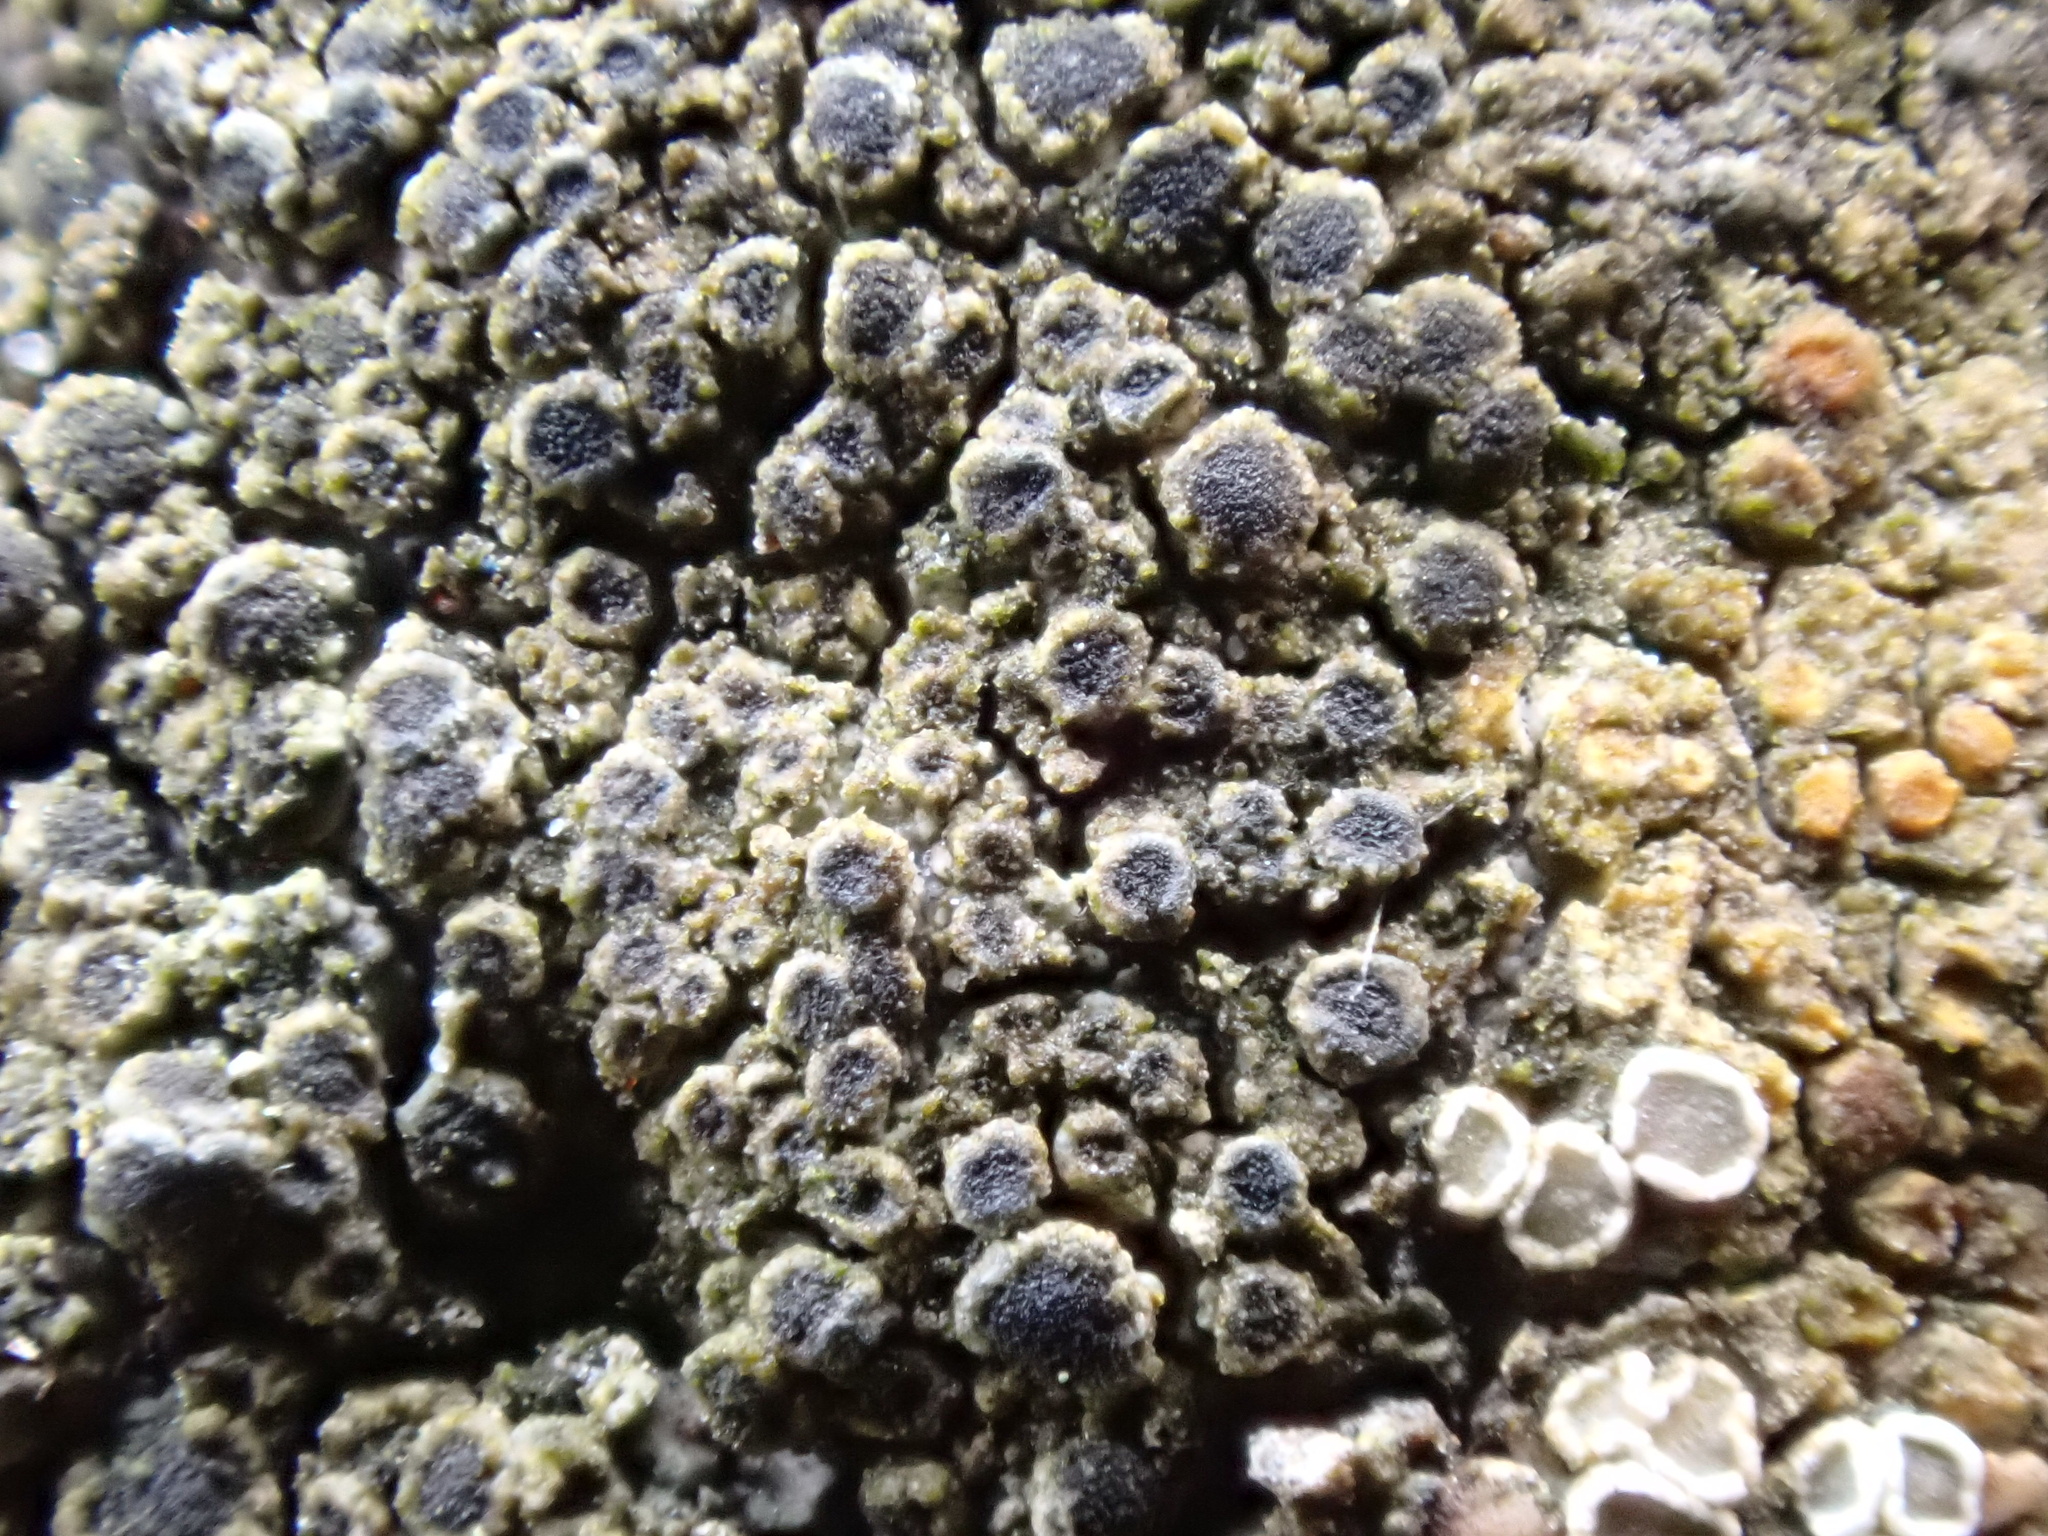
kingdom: Fungi
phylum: Ascomycota
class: Lecanoromycetes
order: Caliciales
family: Physciaceae
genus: Rinodina
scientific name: Rinodina oleae
